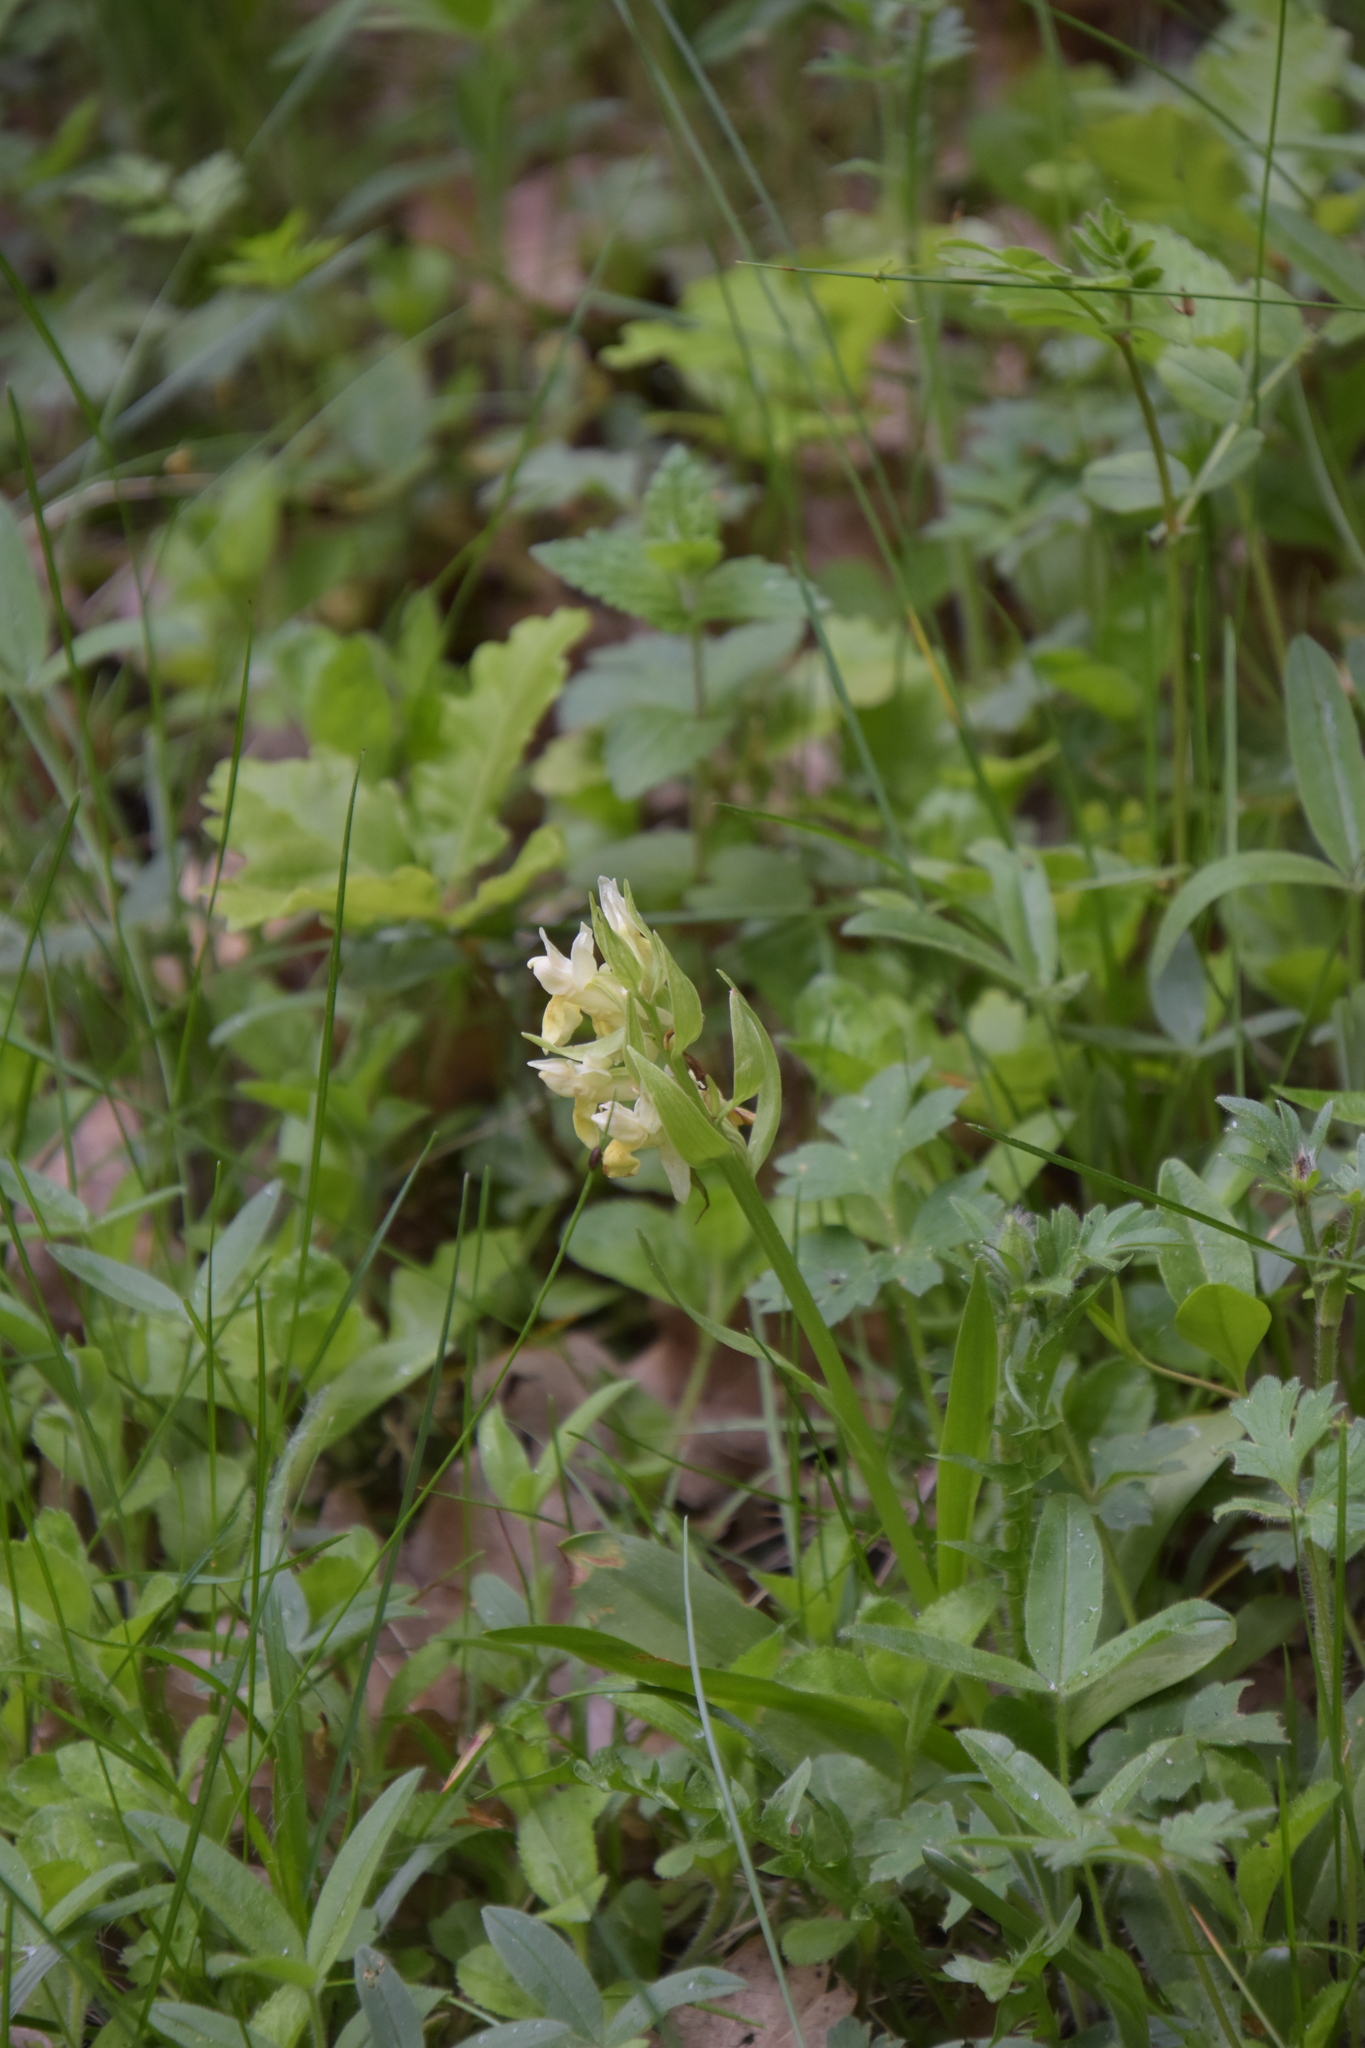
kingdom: Plantae
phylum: Tracheophyta
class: Liliopsida
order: Asparagales
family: Orchidaceae
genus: Dactylorhiza
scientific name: Dactylorhiza sambucina
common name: Elder-flowered orchid
